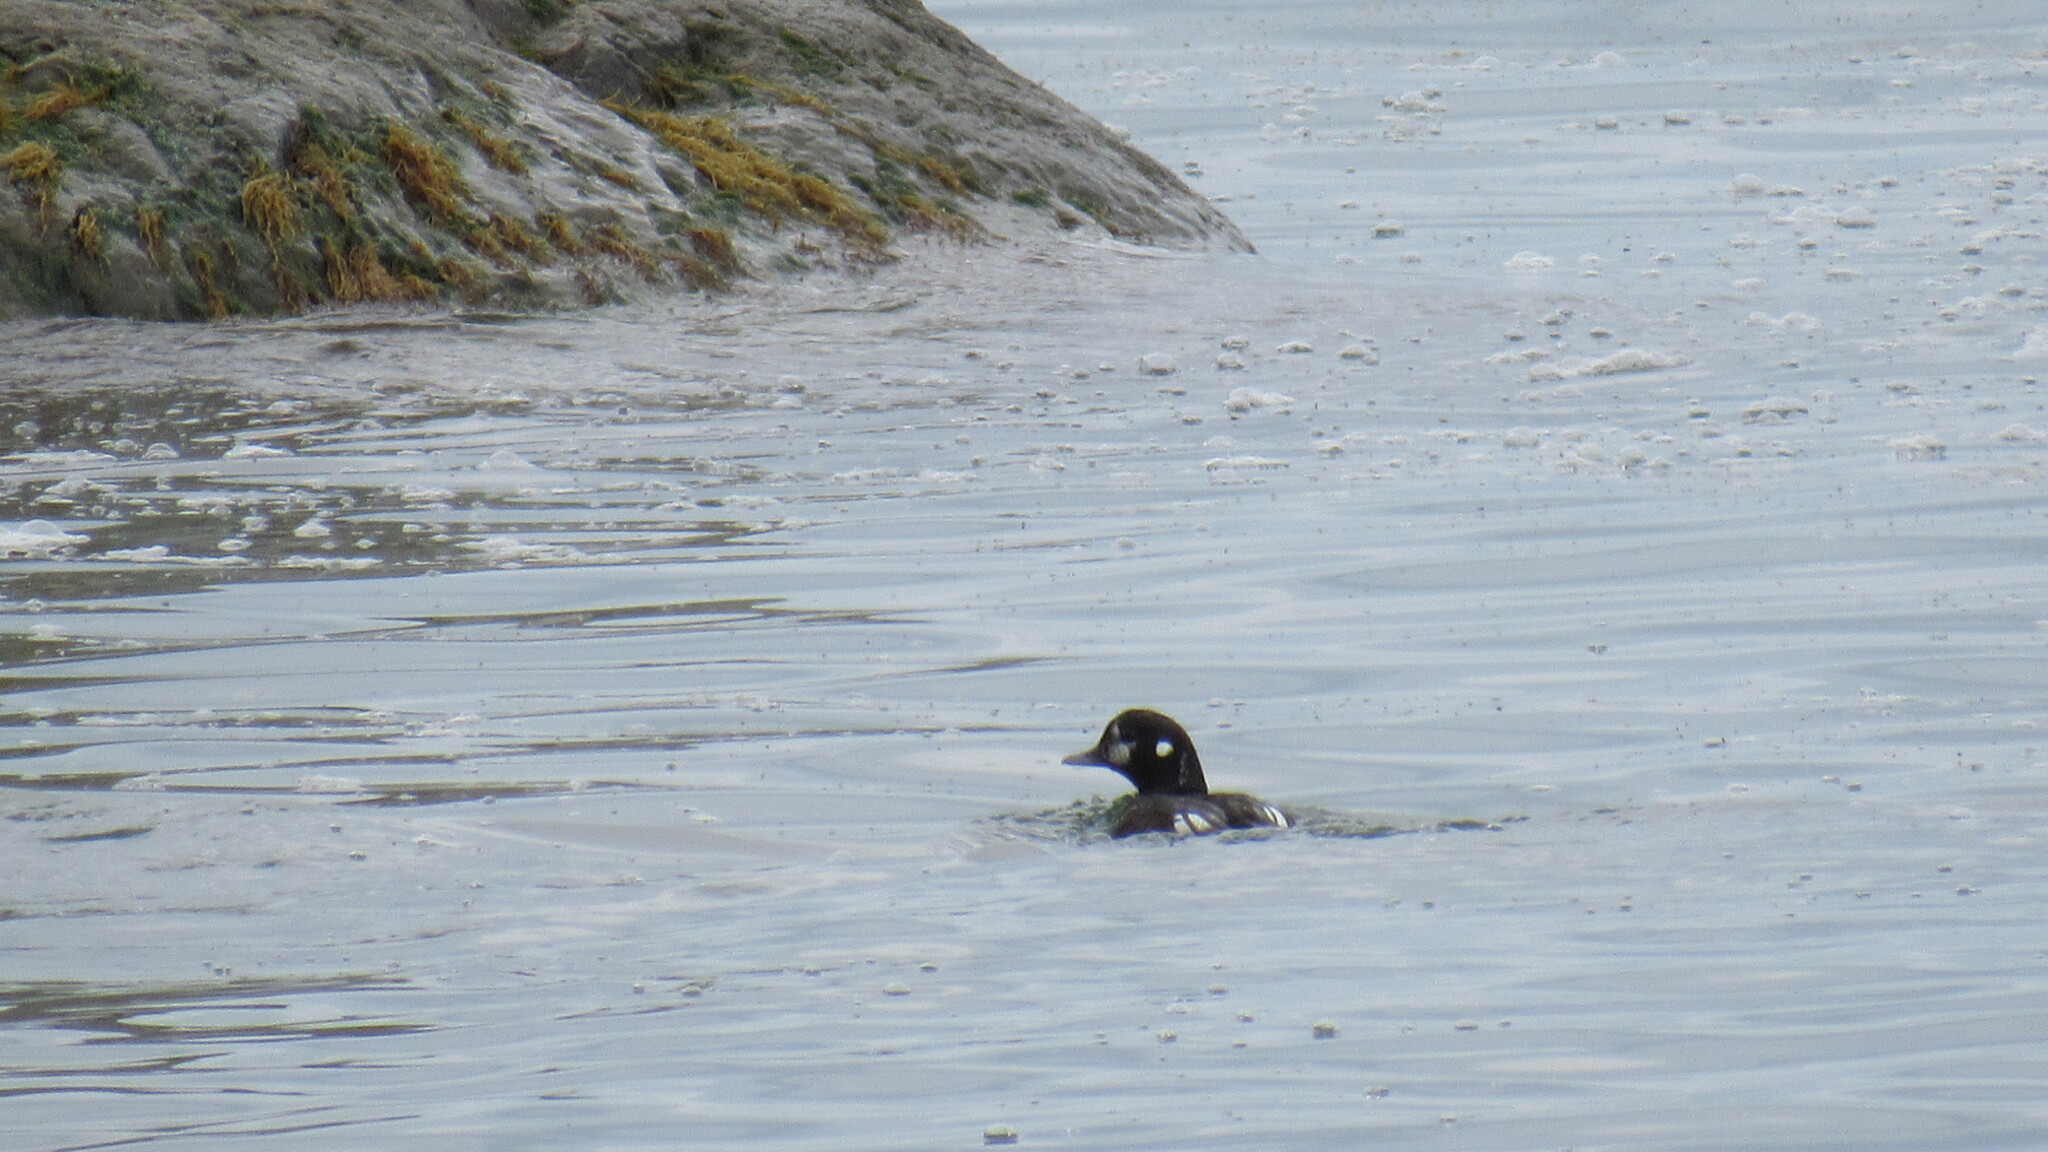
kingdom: Animalia
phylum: Chordata
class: Aves
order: Anseriformes
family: Anatidae
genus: Histrionicus
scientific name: Histrionicus histrionicus
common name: Harlequin duck
